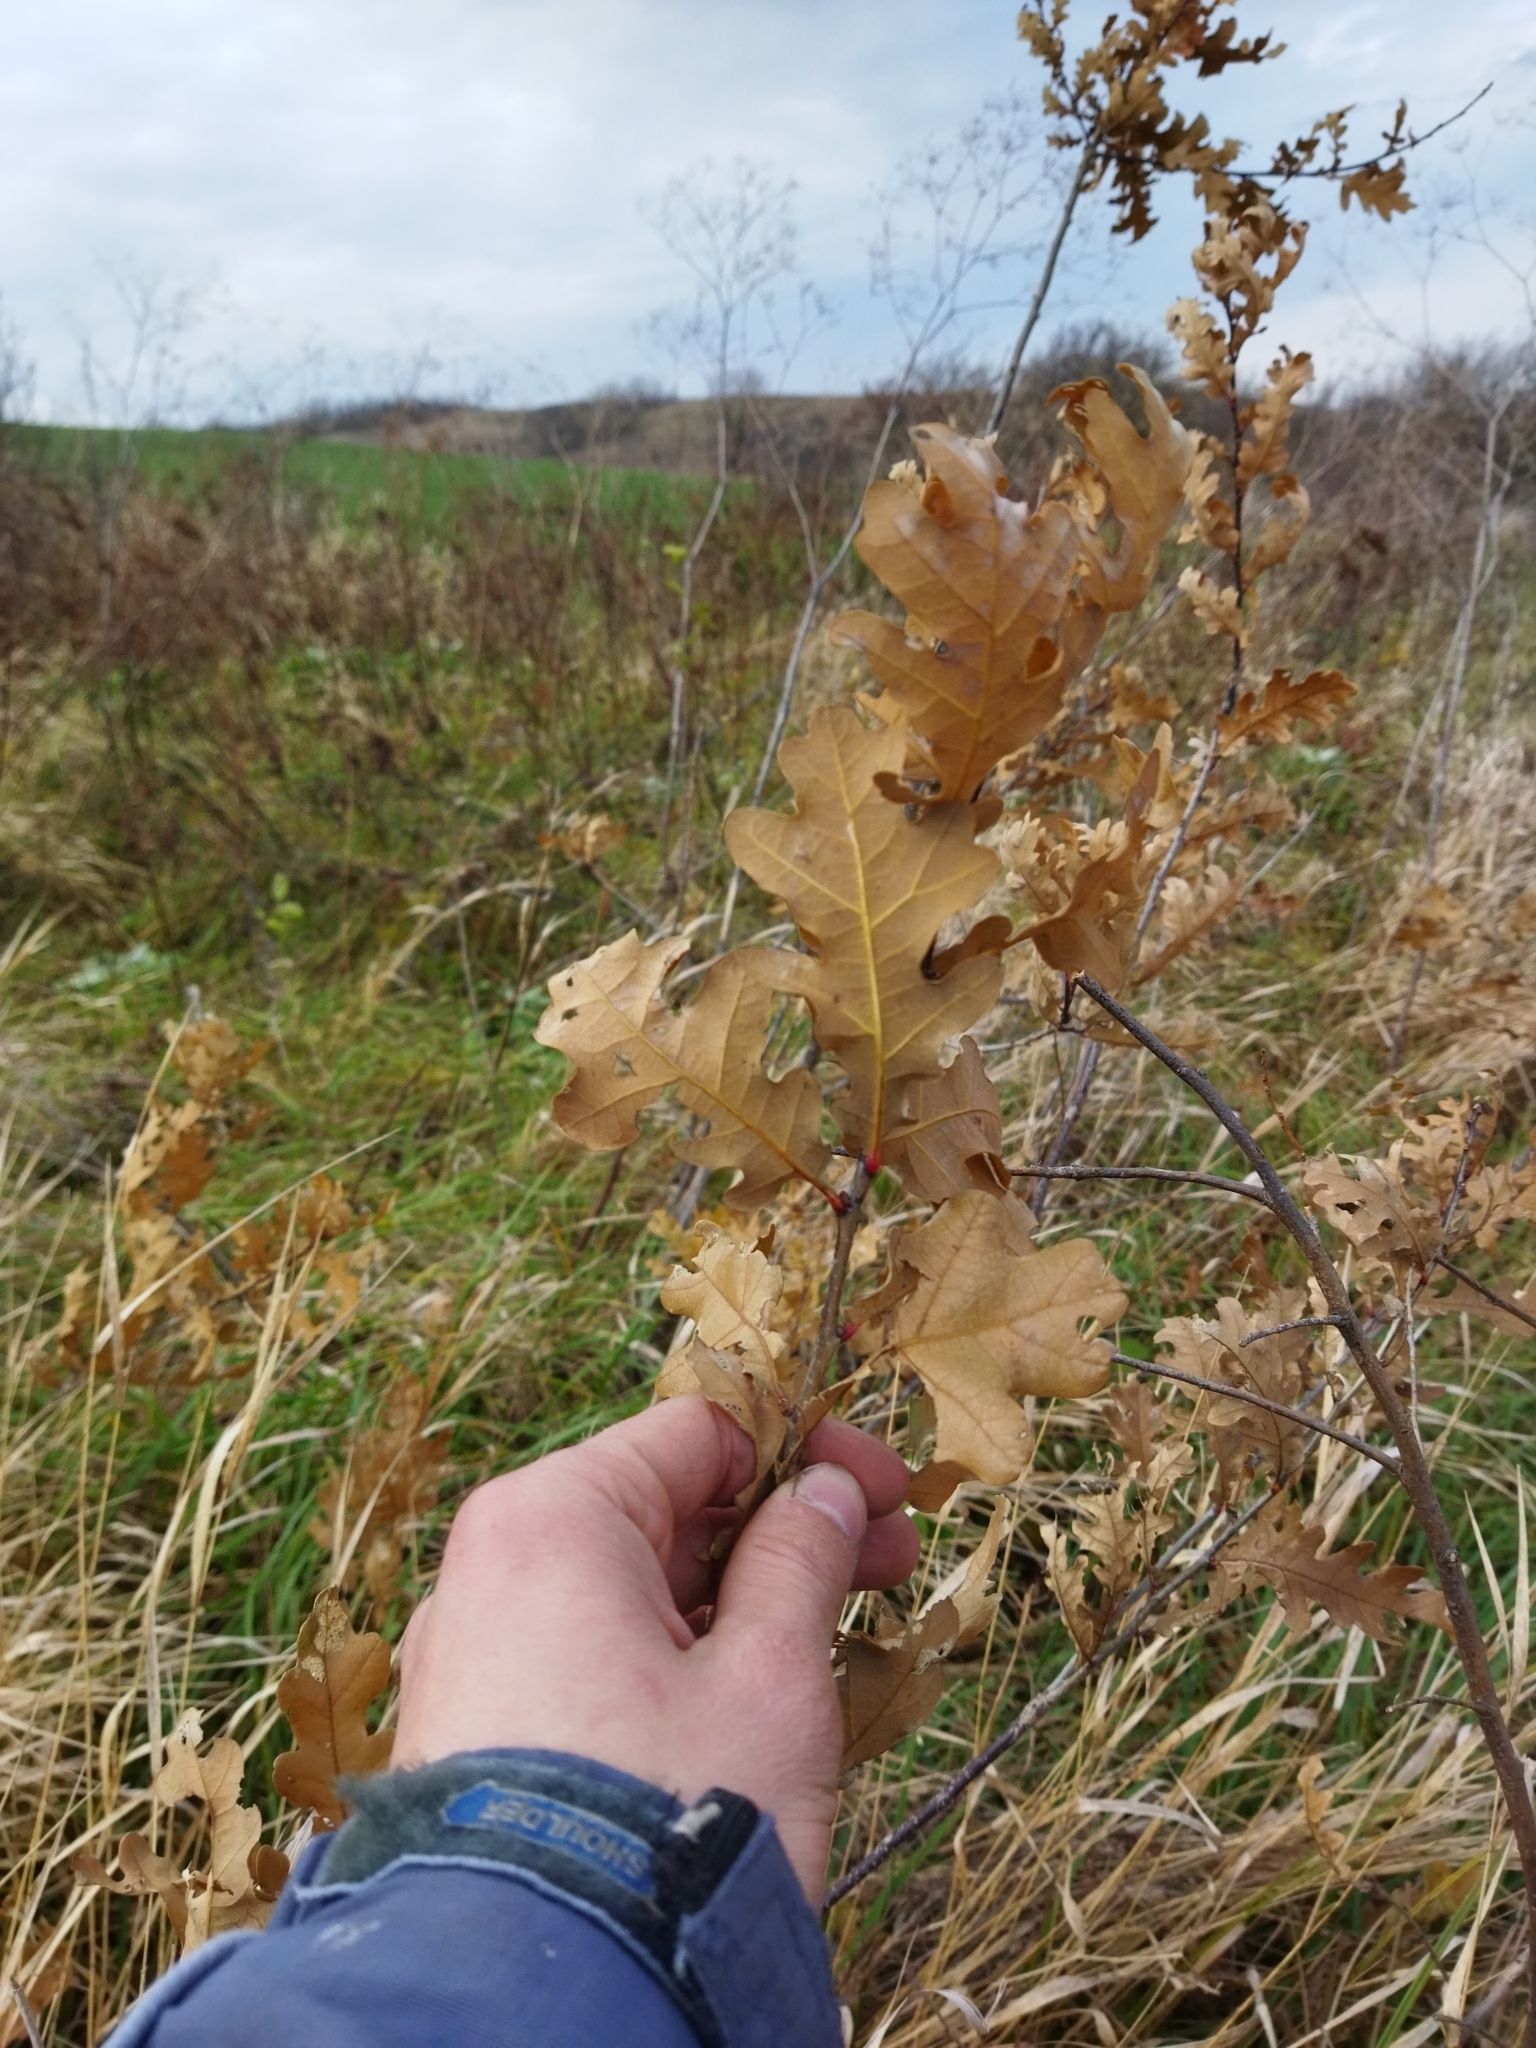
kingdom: Plantae
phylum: Tracheophyta
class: Magnoliopsida
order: Fagales
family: Fagaceae
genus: Quercus
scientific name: Quercus robur
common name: Pedunculate oak
